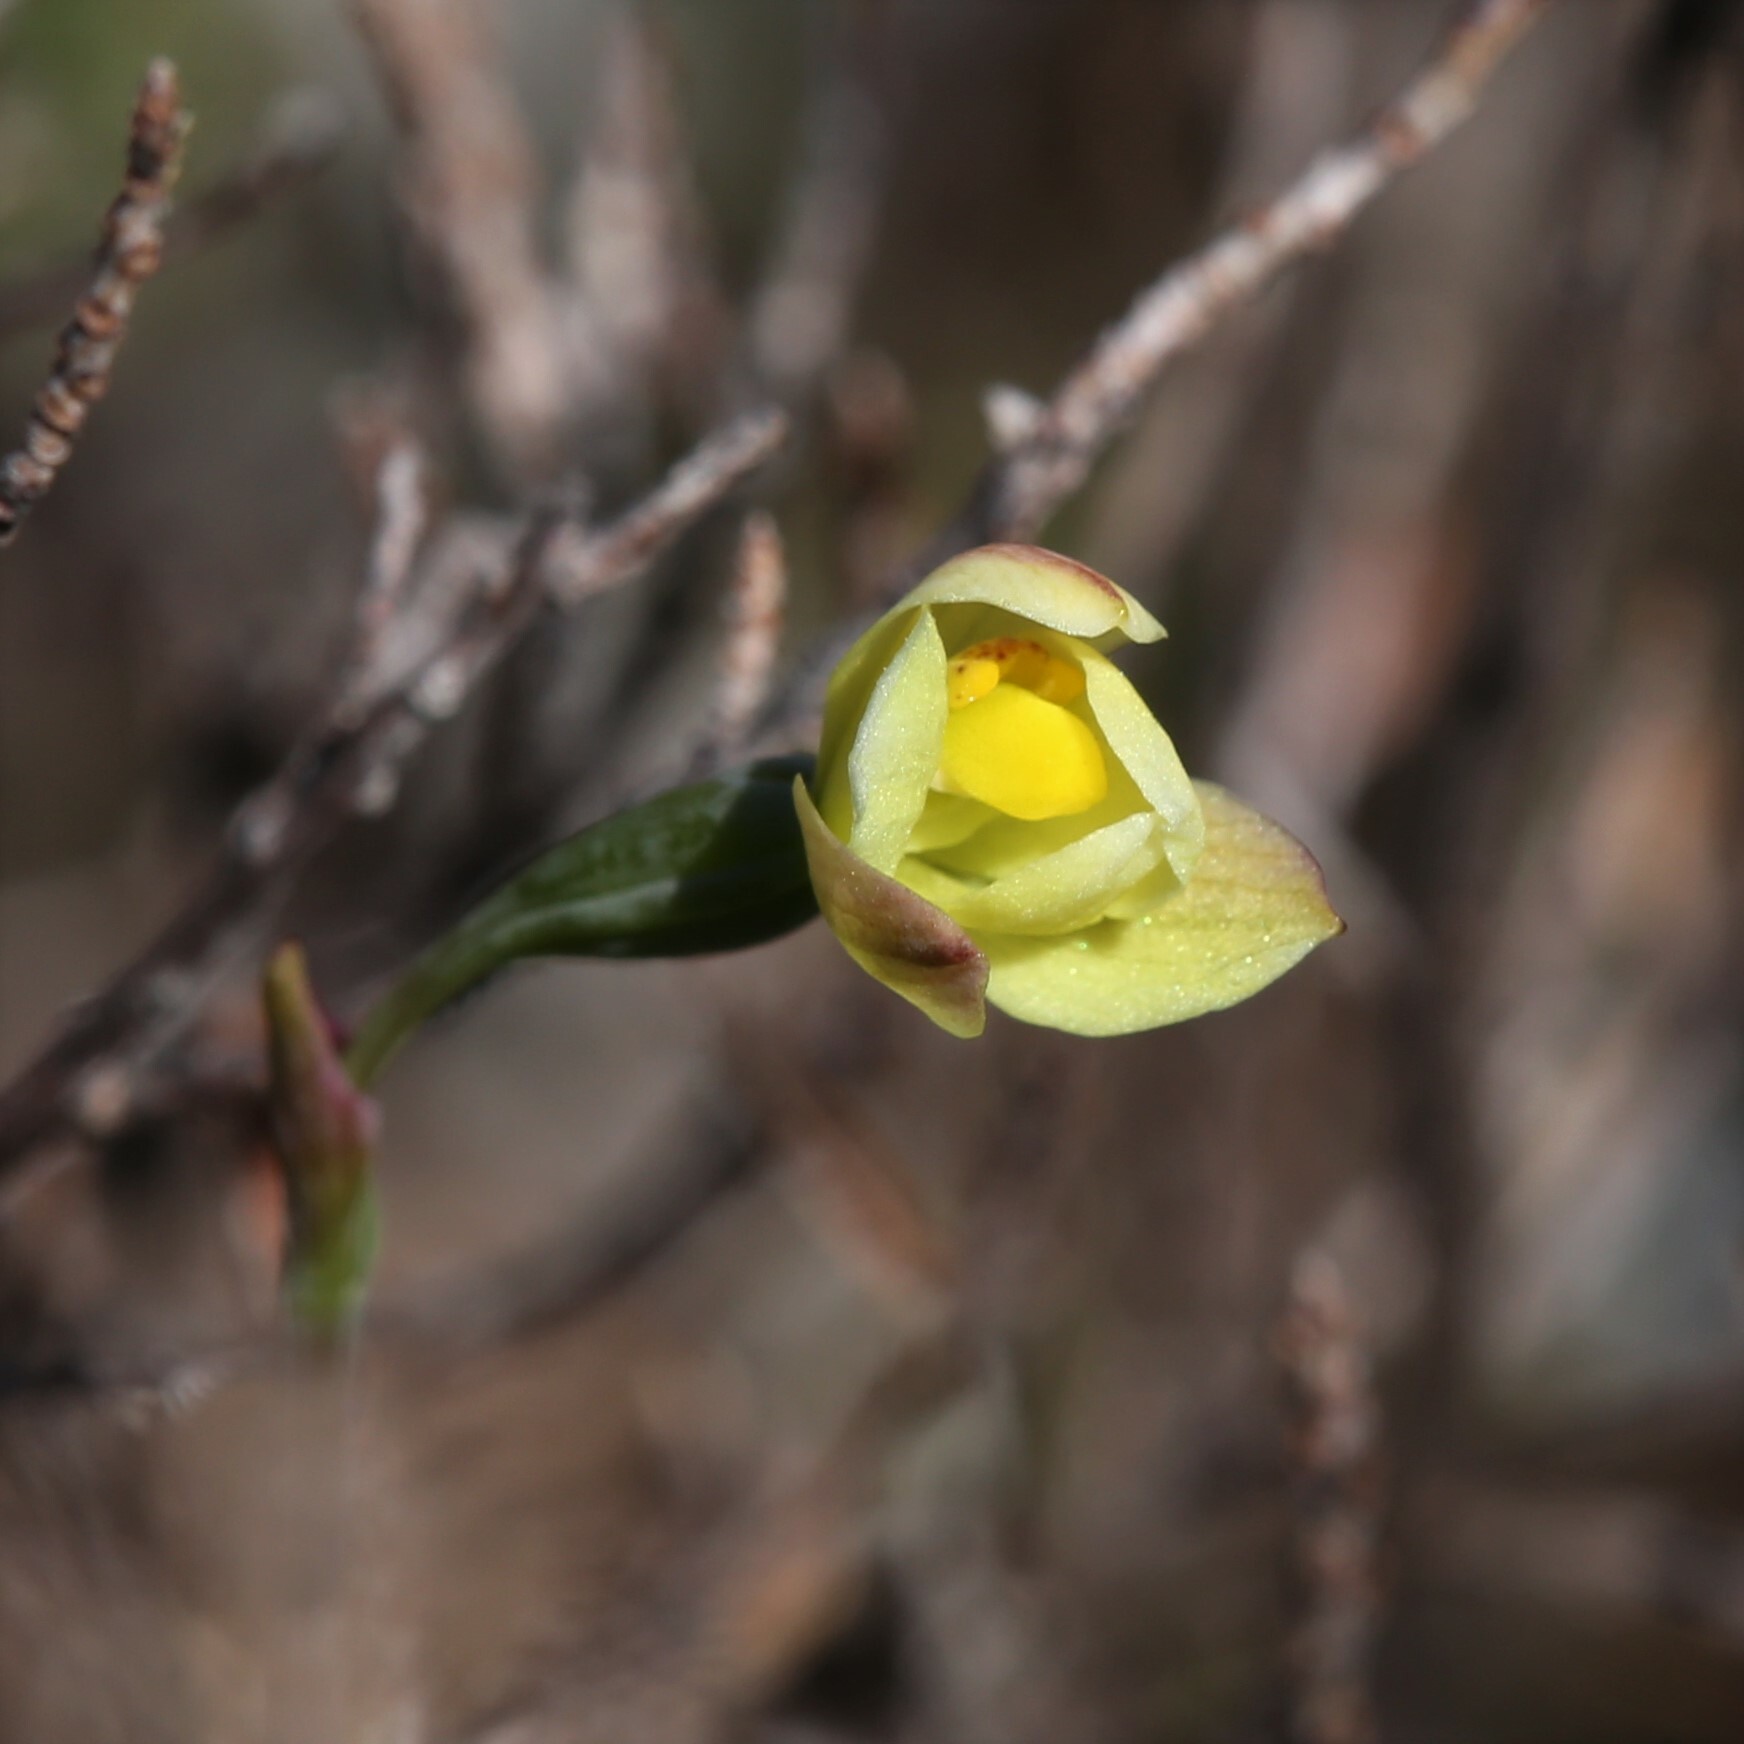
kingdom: Plantae
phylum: Tracheophyta
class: Liliopsida
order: Asparagales
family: Orchidaceae
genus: Thelymitra
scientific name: Thelymitra flexuosa
